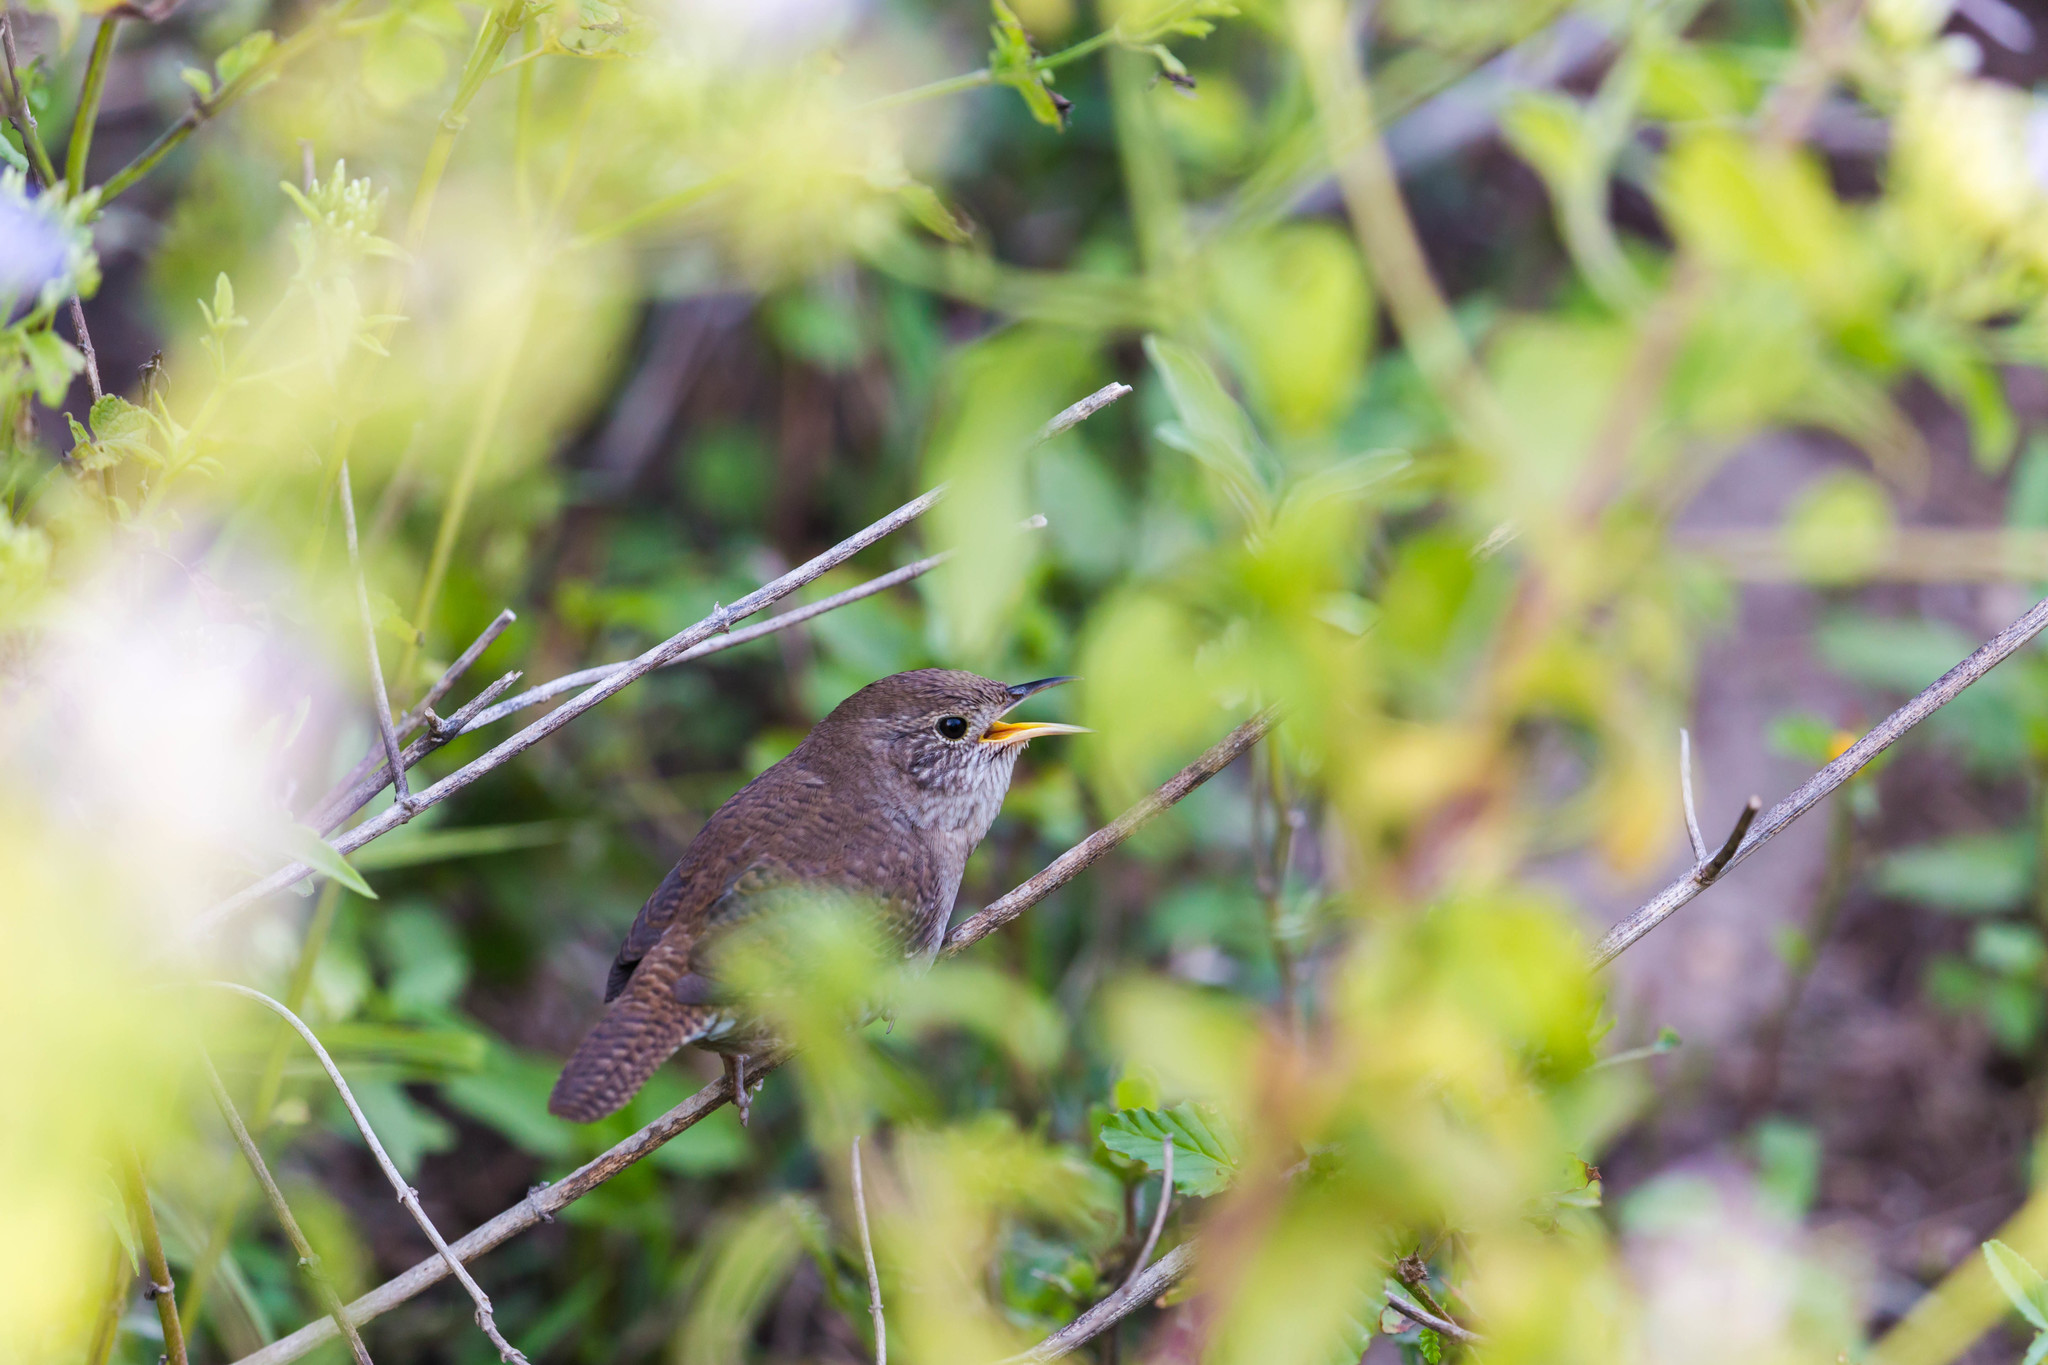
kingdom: Animalia
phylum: Chordata
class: Aves
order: Passeriformes
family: Troglodytidae
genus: Troglodytes
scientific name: Troglodytes aedon
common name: House wren
